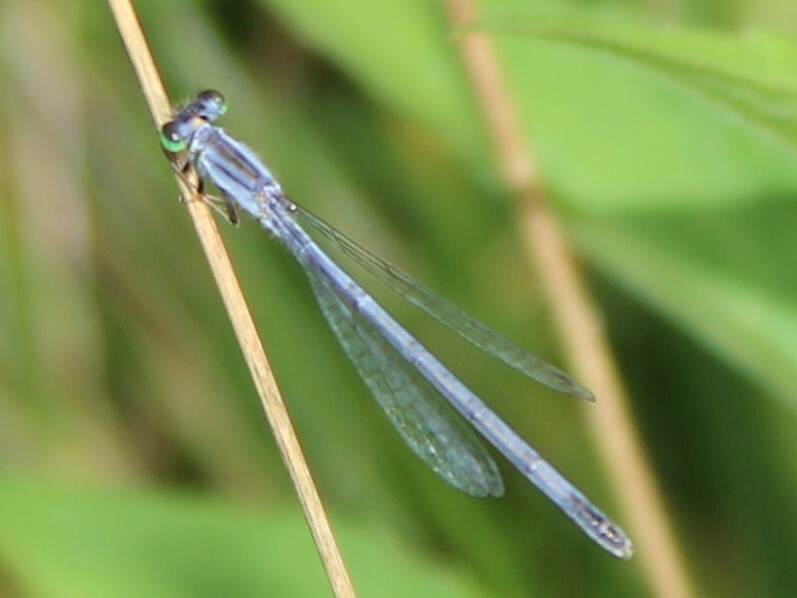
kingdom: Animalia
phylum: Arthropoda
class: Insecta
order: Odonata
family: Coenagrionidae
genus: Ischnura
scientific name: Ischnura verticalis
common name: Eastern forktail
